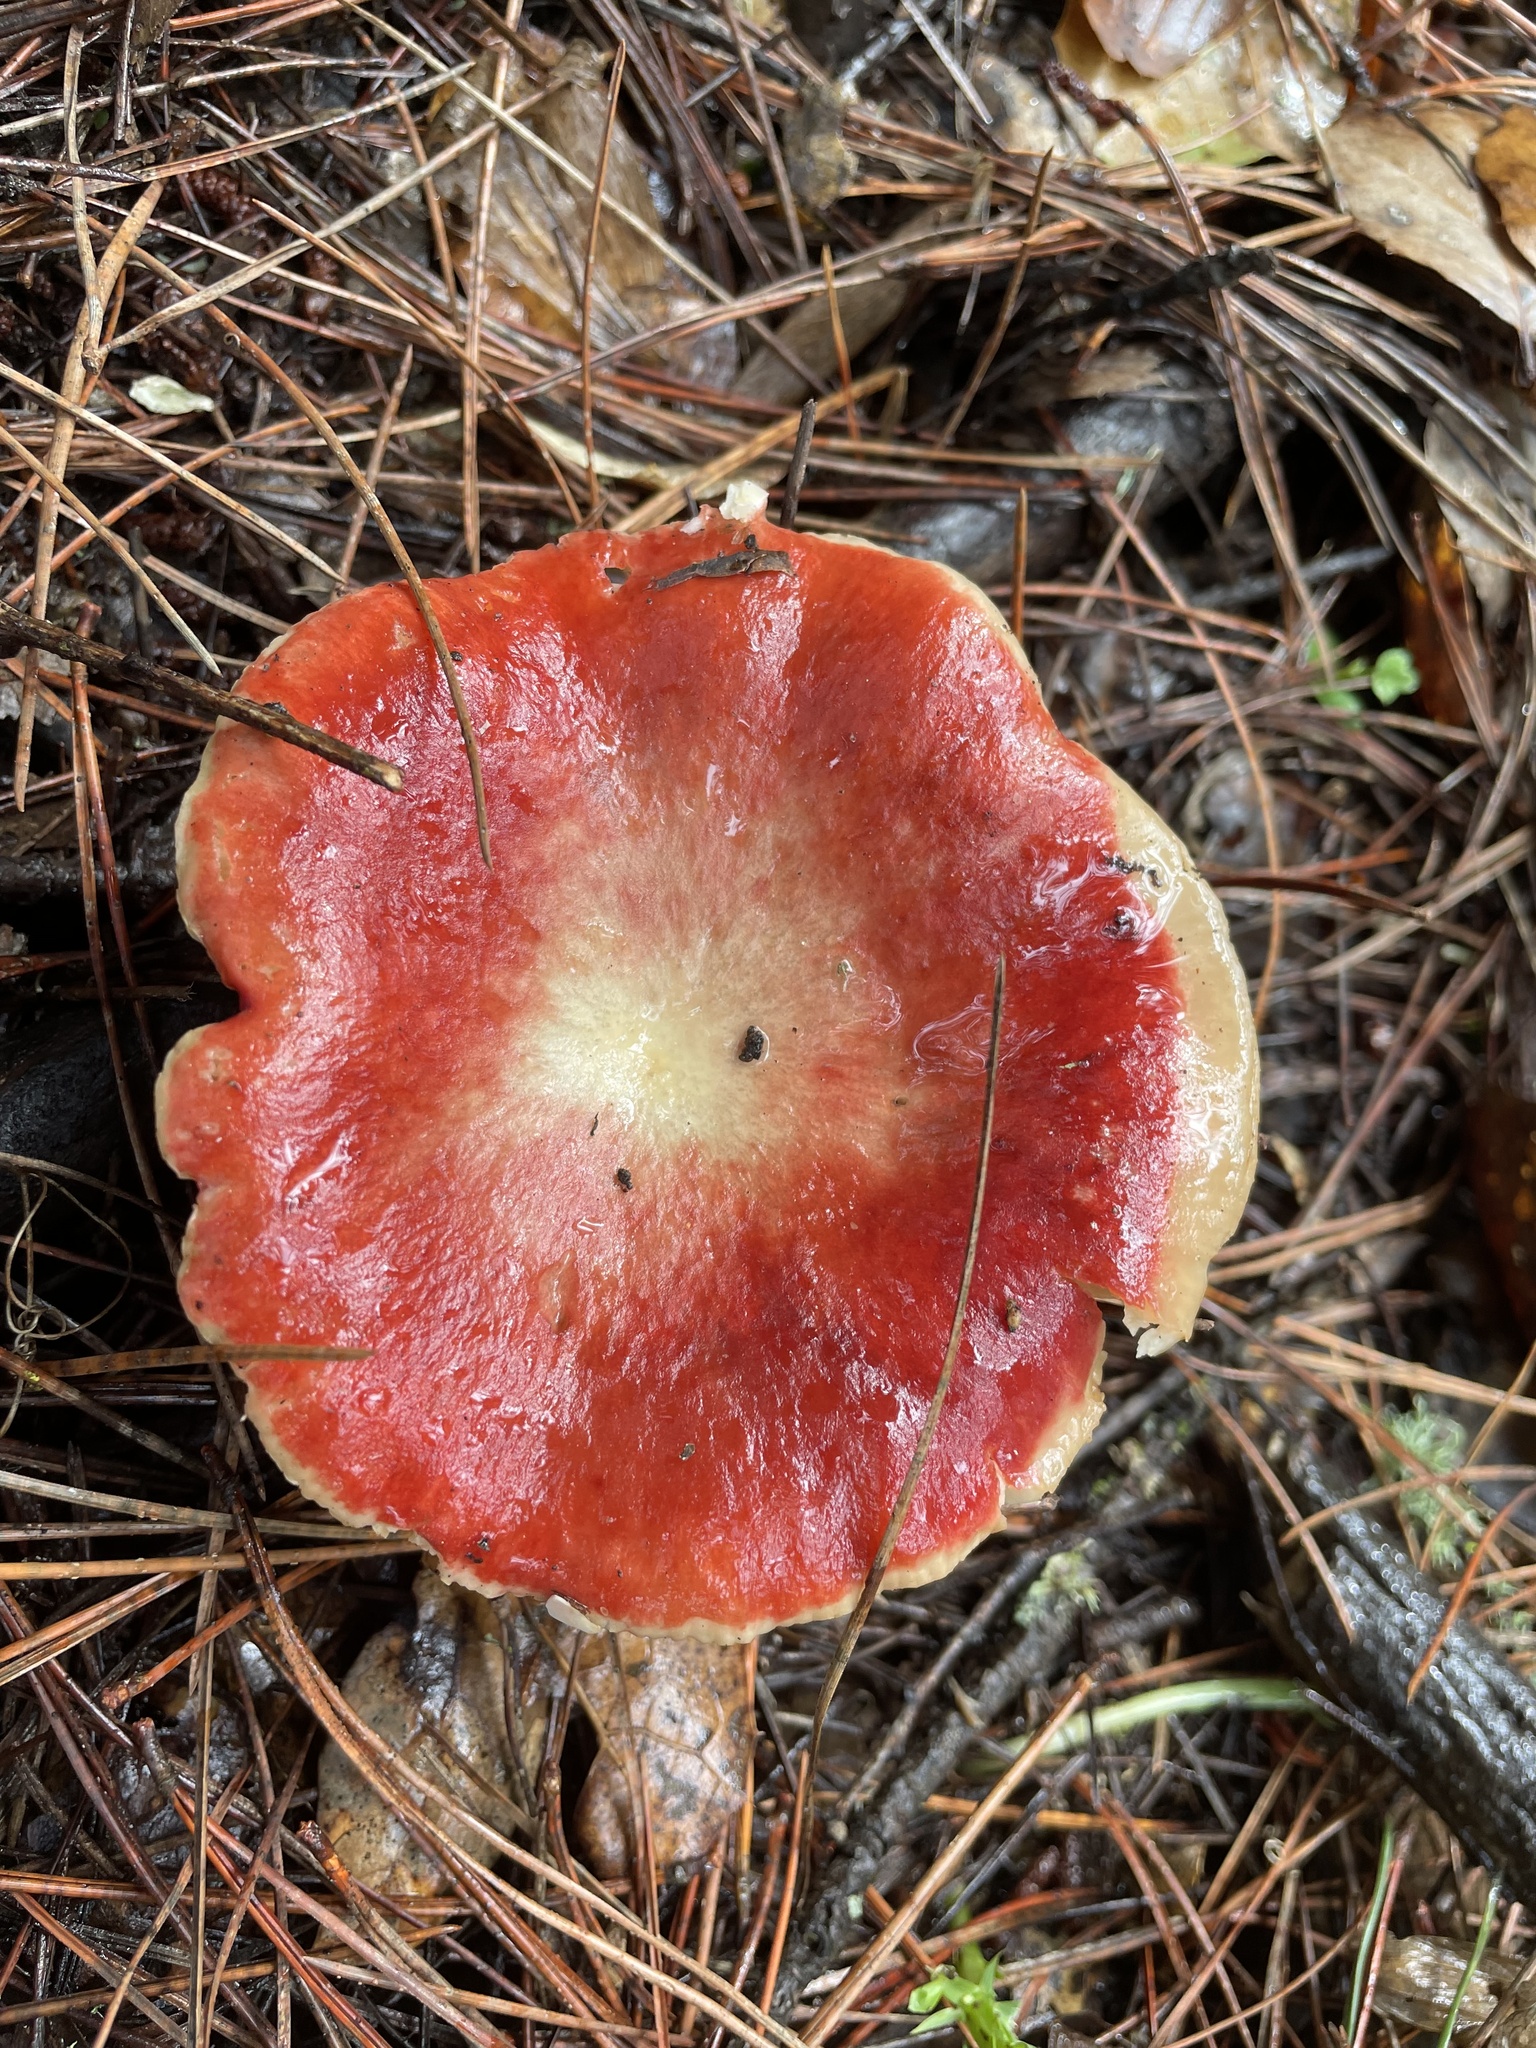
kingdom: Fungi
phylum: Basidiomycota
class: Agaricomycetes
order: Russulales
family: Russulaceae
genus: Russula
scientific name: Russula rhodocephala
